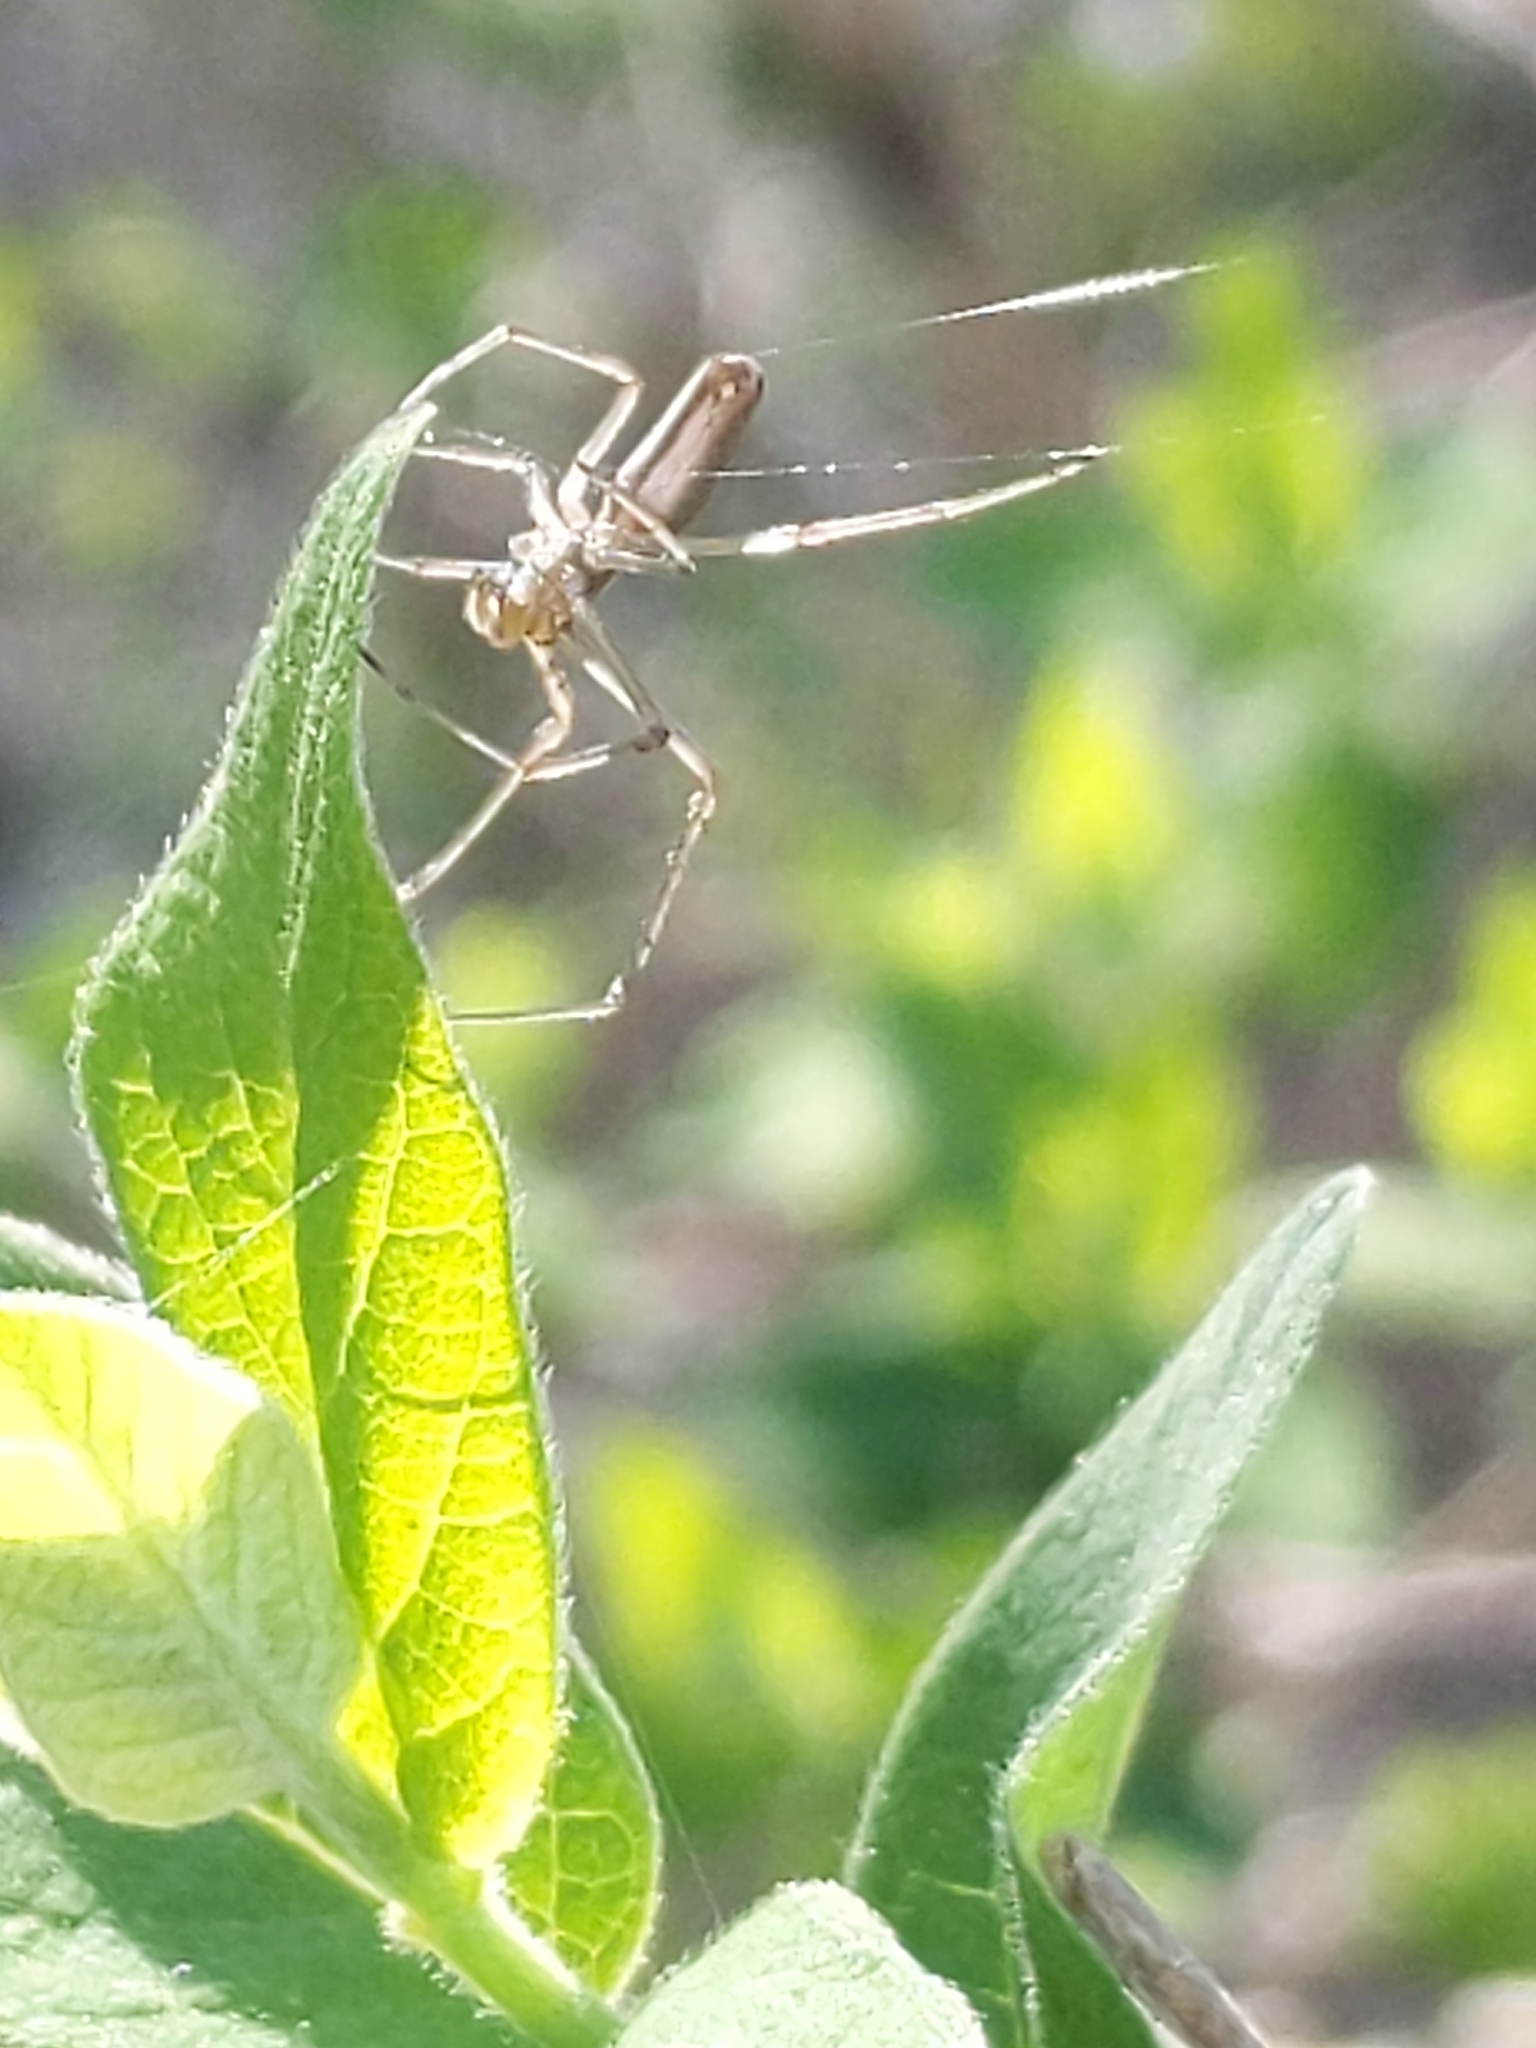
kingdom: Animalia
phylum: Arthropoda
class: Arachnida
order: Araneae
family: Tetragnathidae
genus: Tetragnatha
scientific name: Tetragnatha
